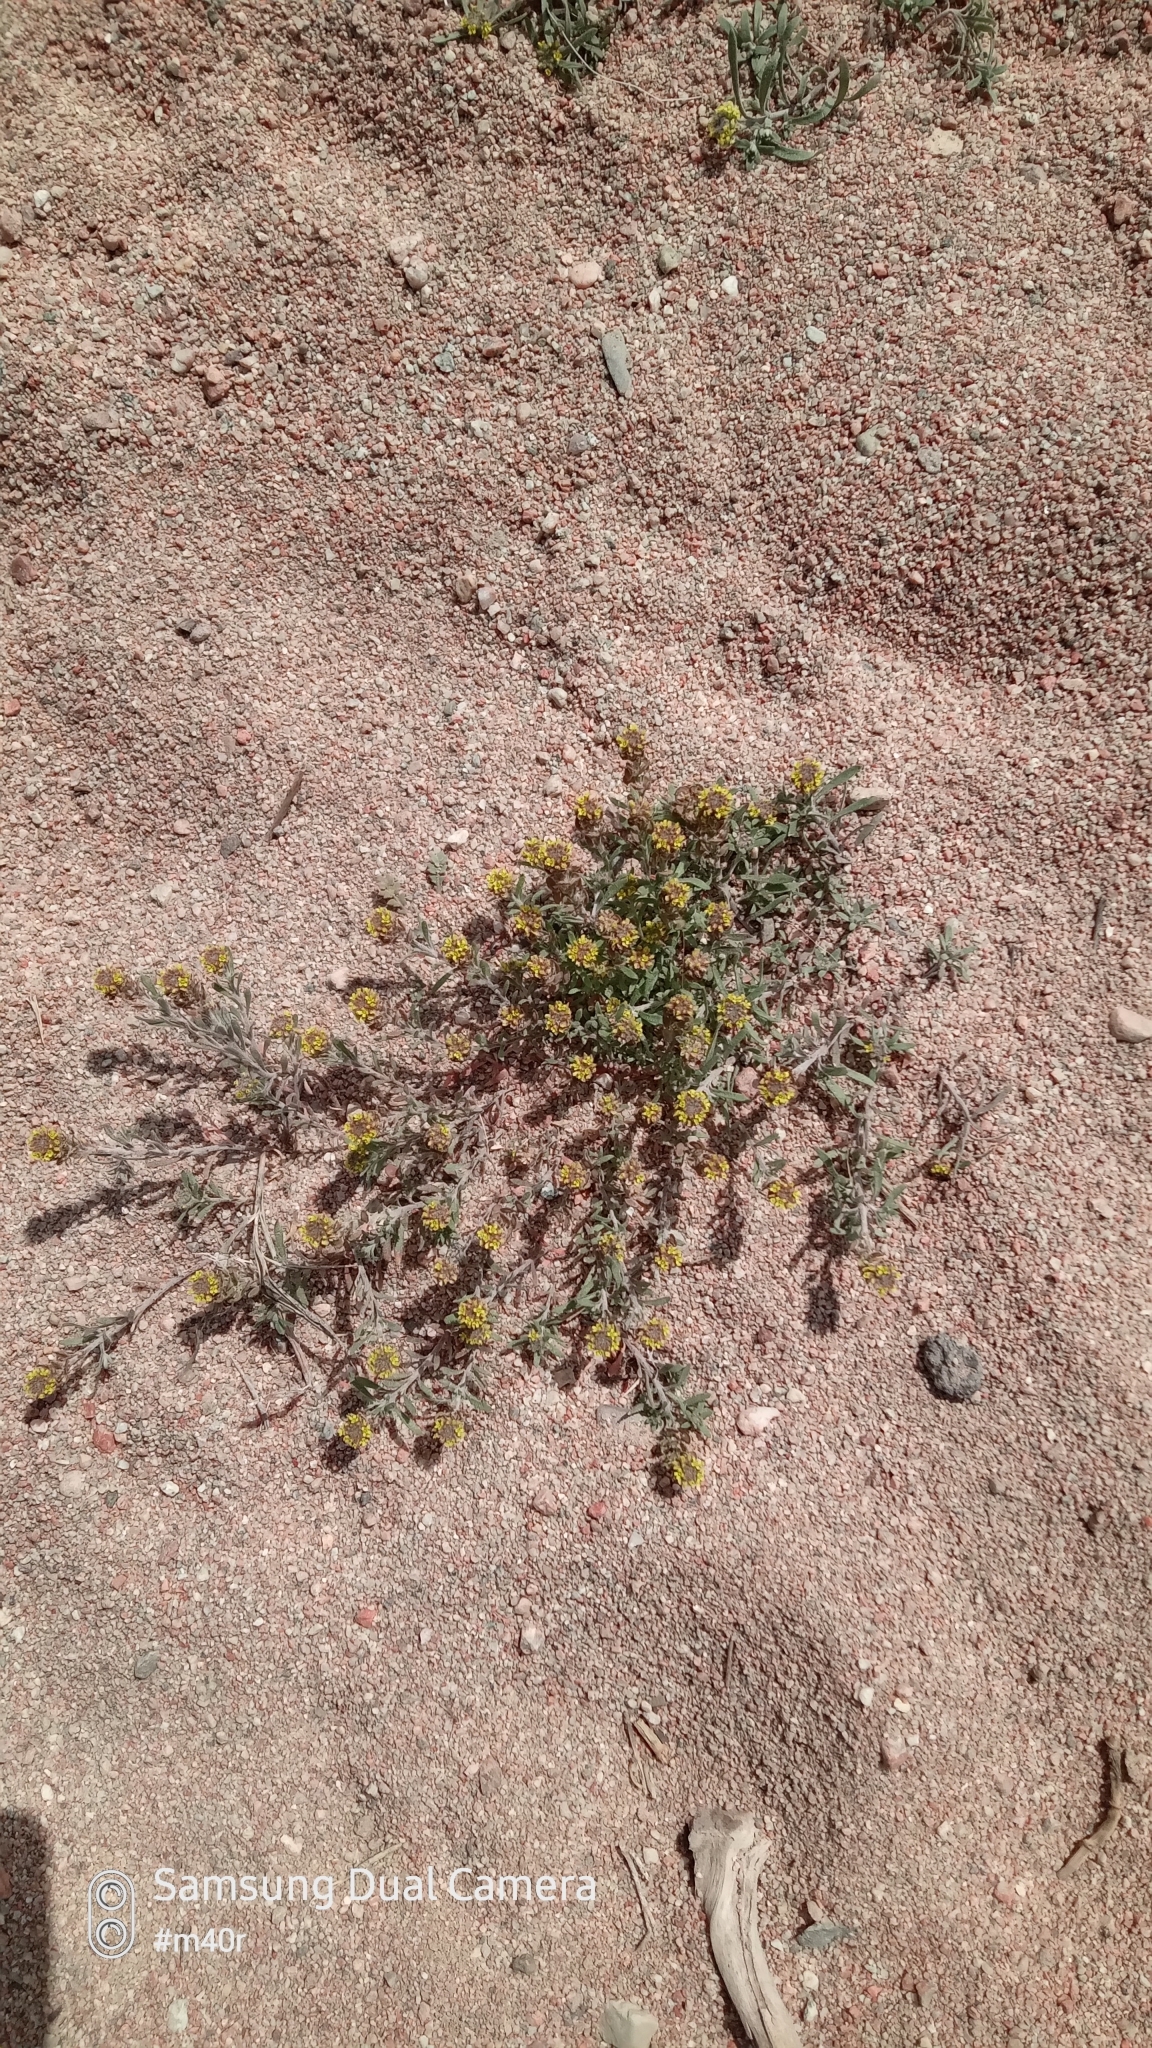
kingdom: Plantae
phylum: Tracheophyta
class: Magnoliopsida
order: Brassicales
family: Brassicaceae
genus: Alyssum
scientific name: Alyssum turkestanicum
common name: Desert alyssum
